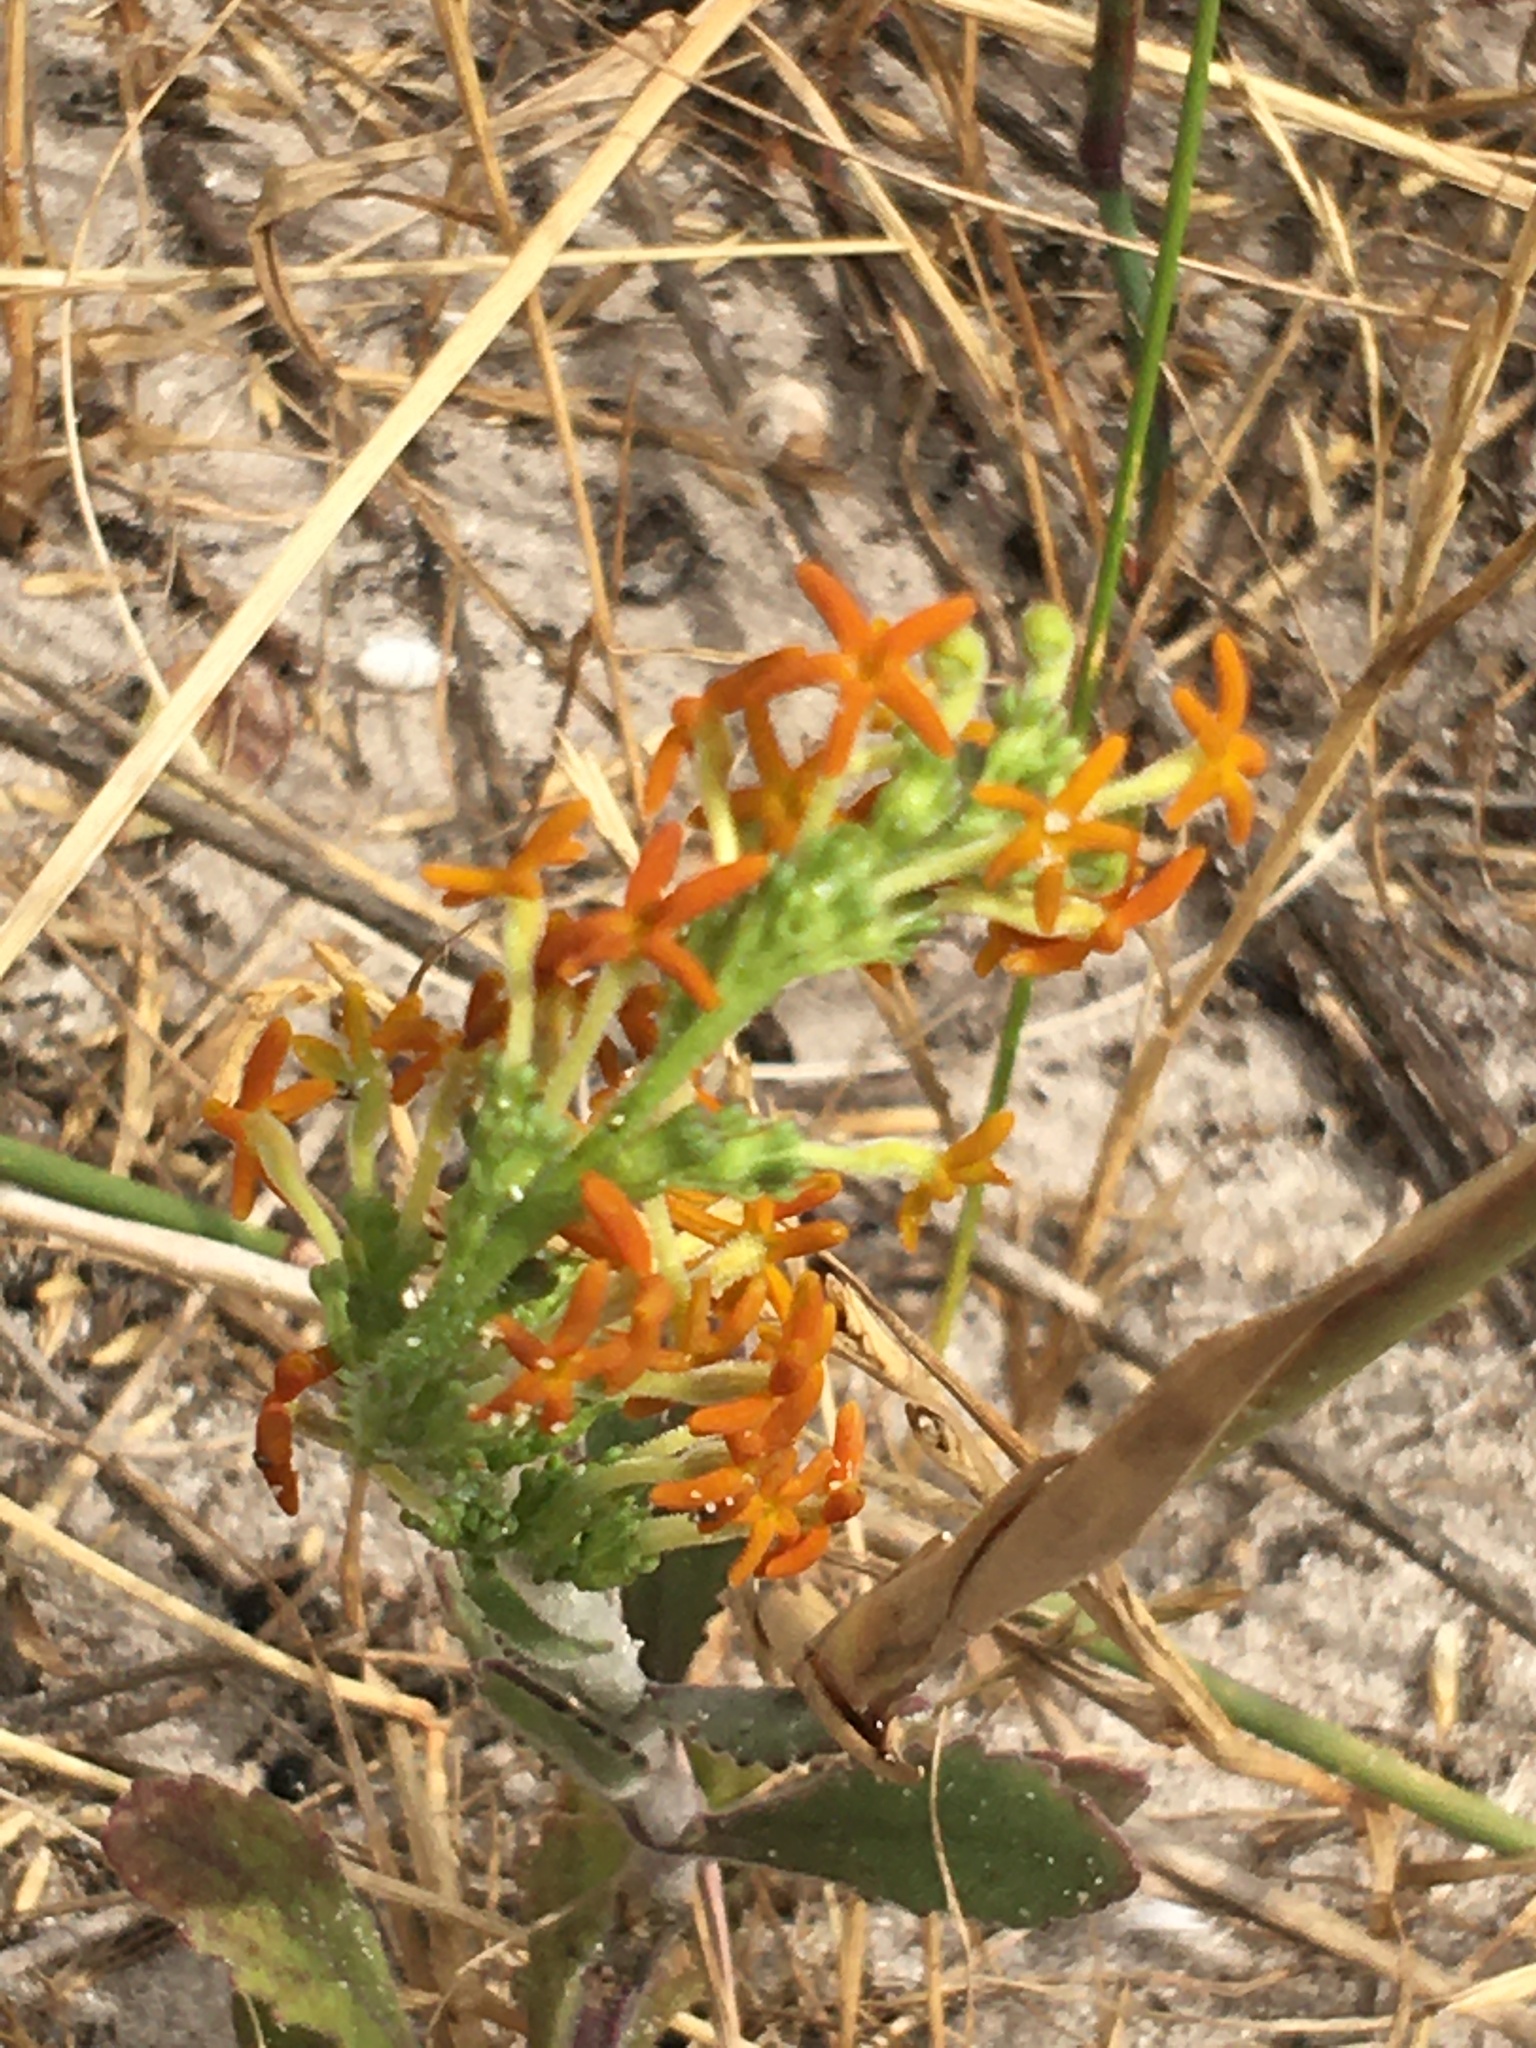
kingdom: Plantae
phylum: Tracheophyta
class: Magnoliopsida
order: Lamiales
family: Scrophulariaceae
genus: Manulea
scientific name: Manulea tomentosa
